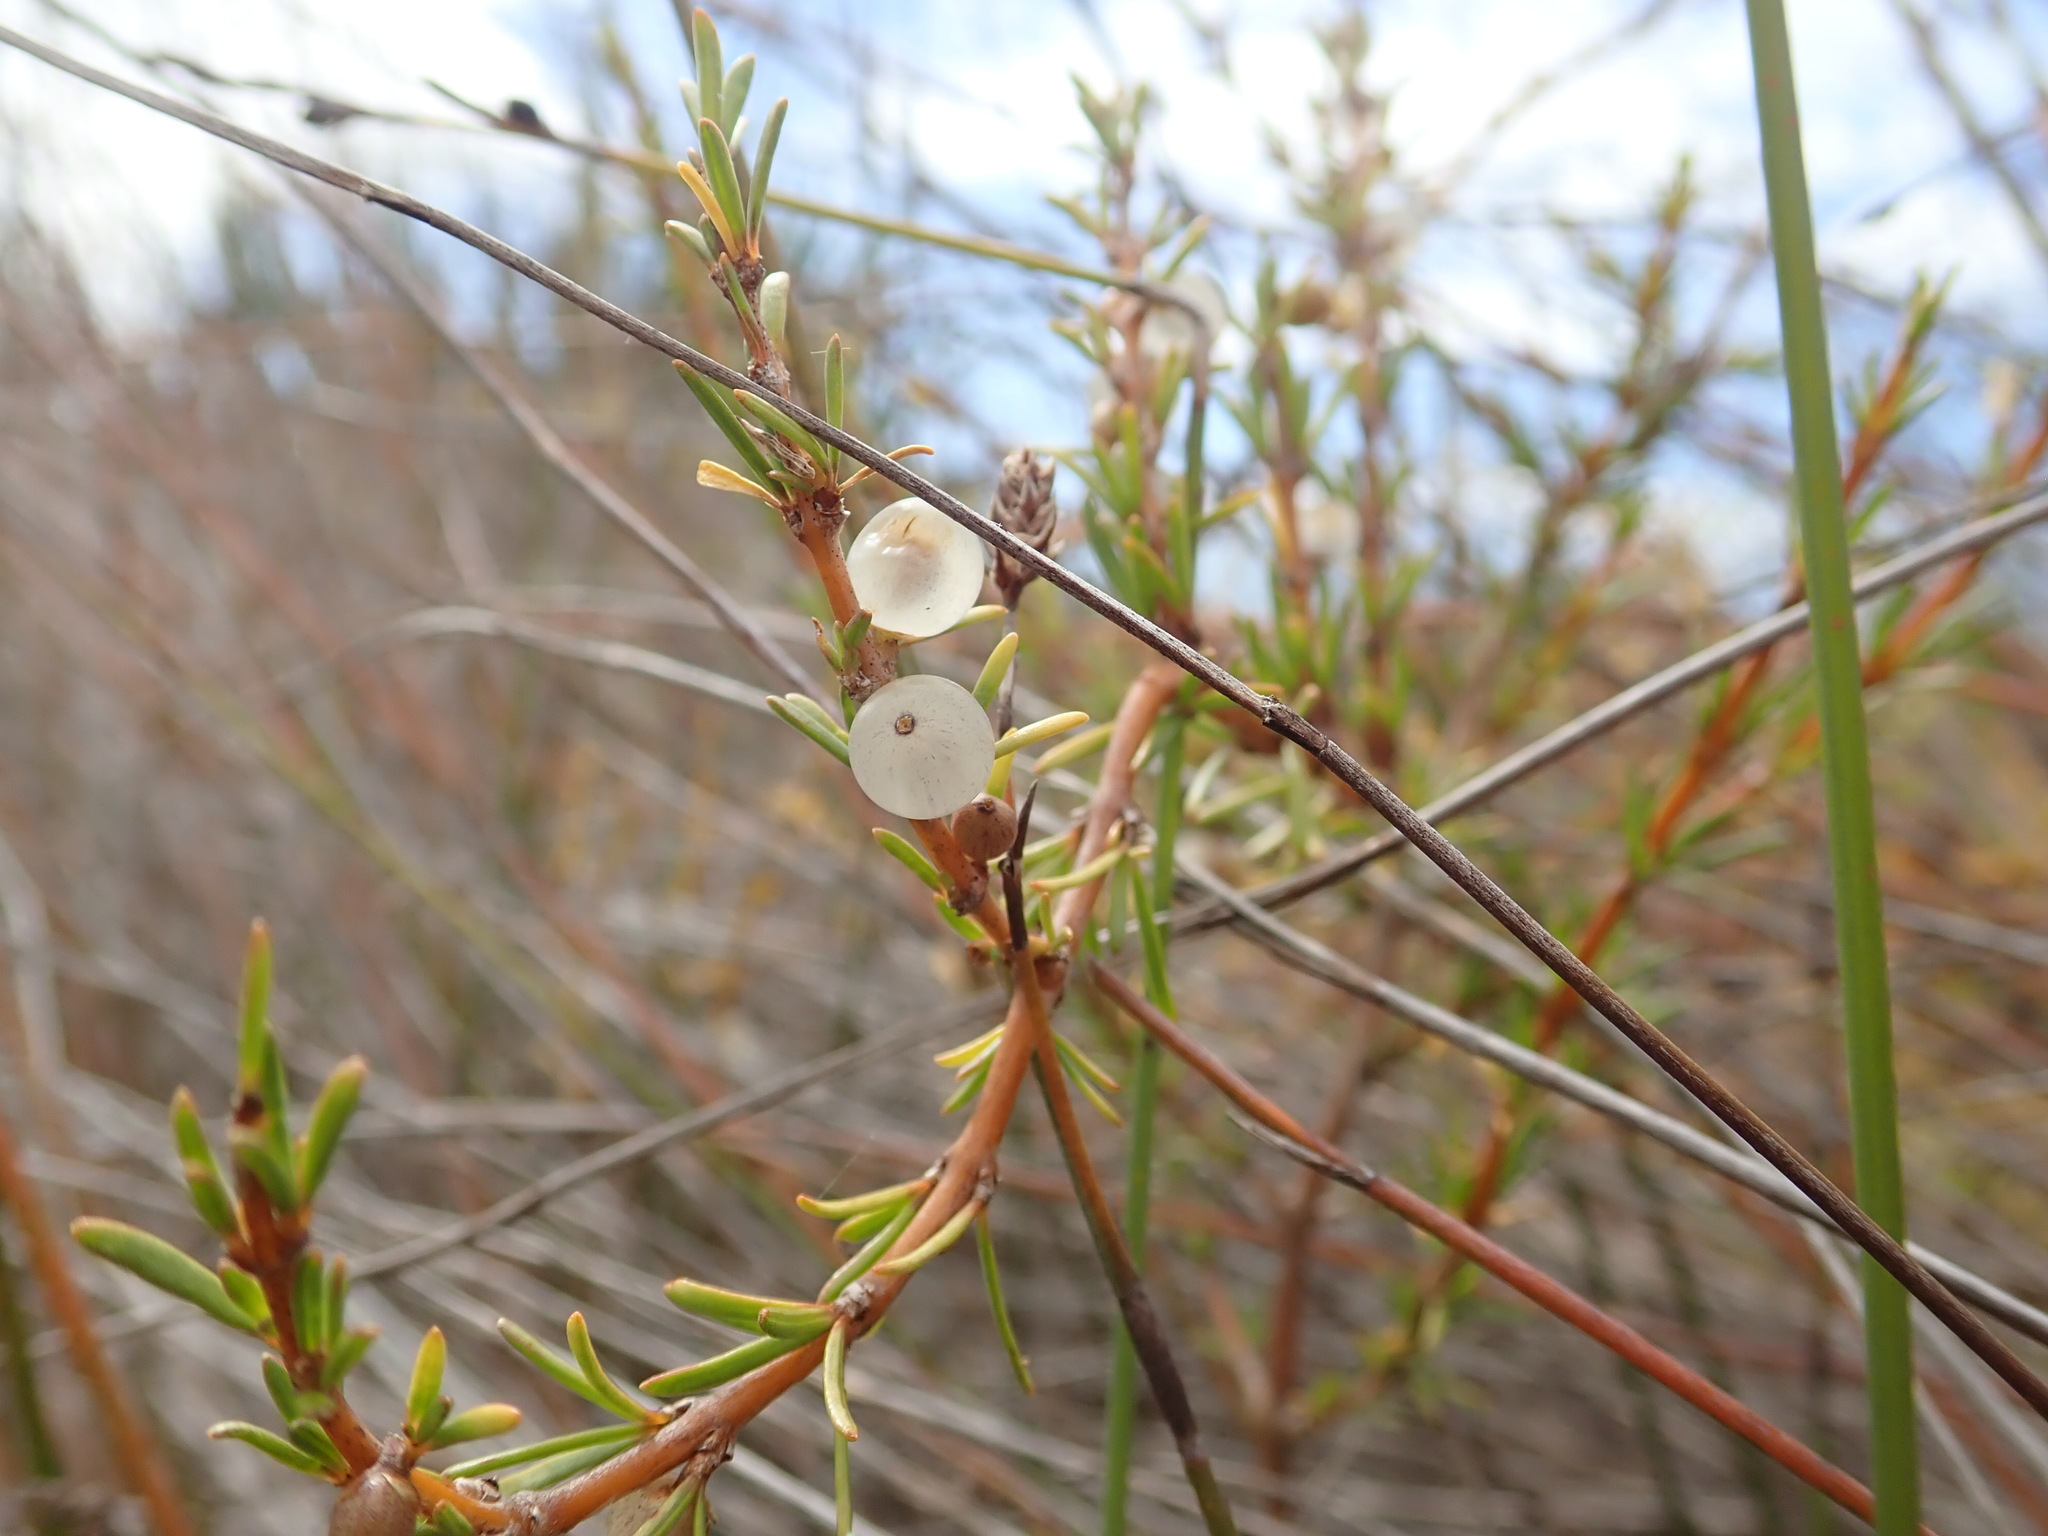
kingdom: Plantae
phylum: Tracheophyta
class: Magnoliopsida
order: Gentianales
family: Rubiaceae
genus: Coprosma
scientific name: Coprosma acerosa
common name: Sand coprosma
